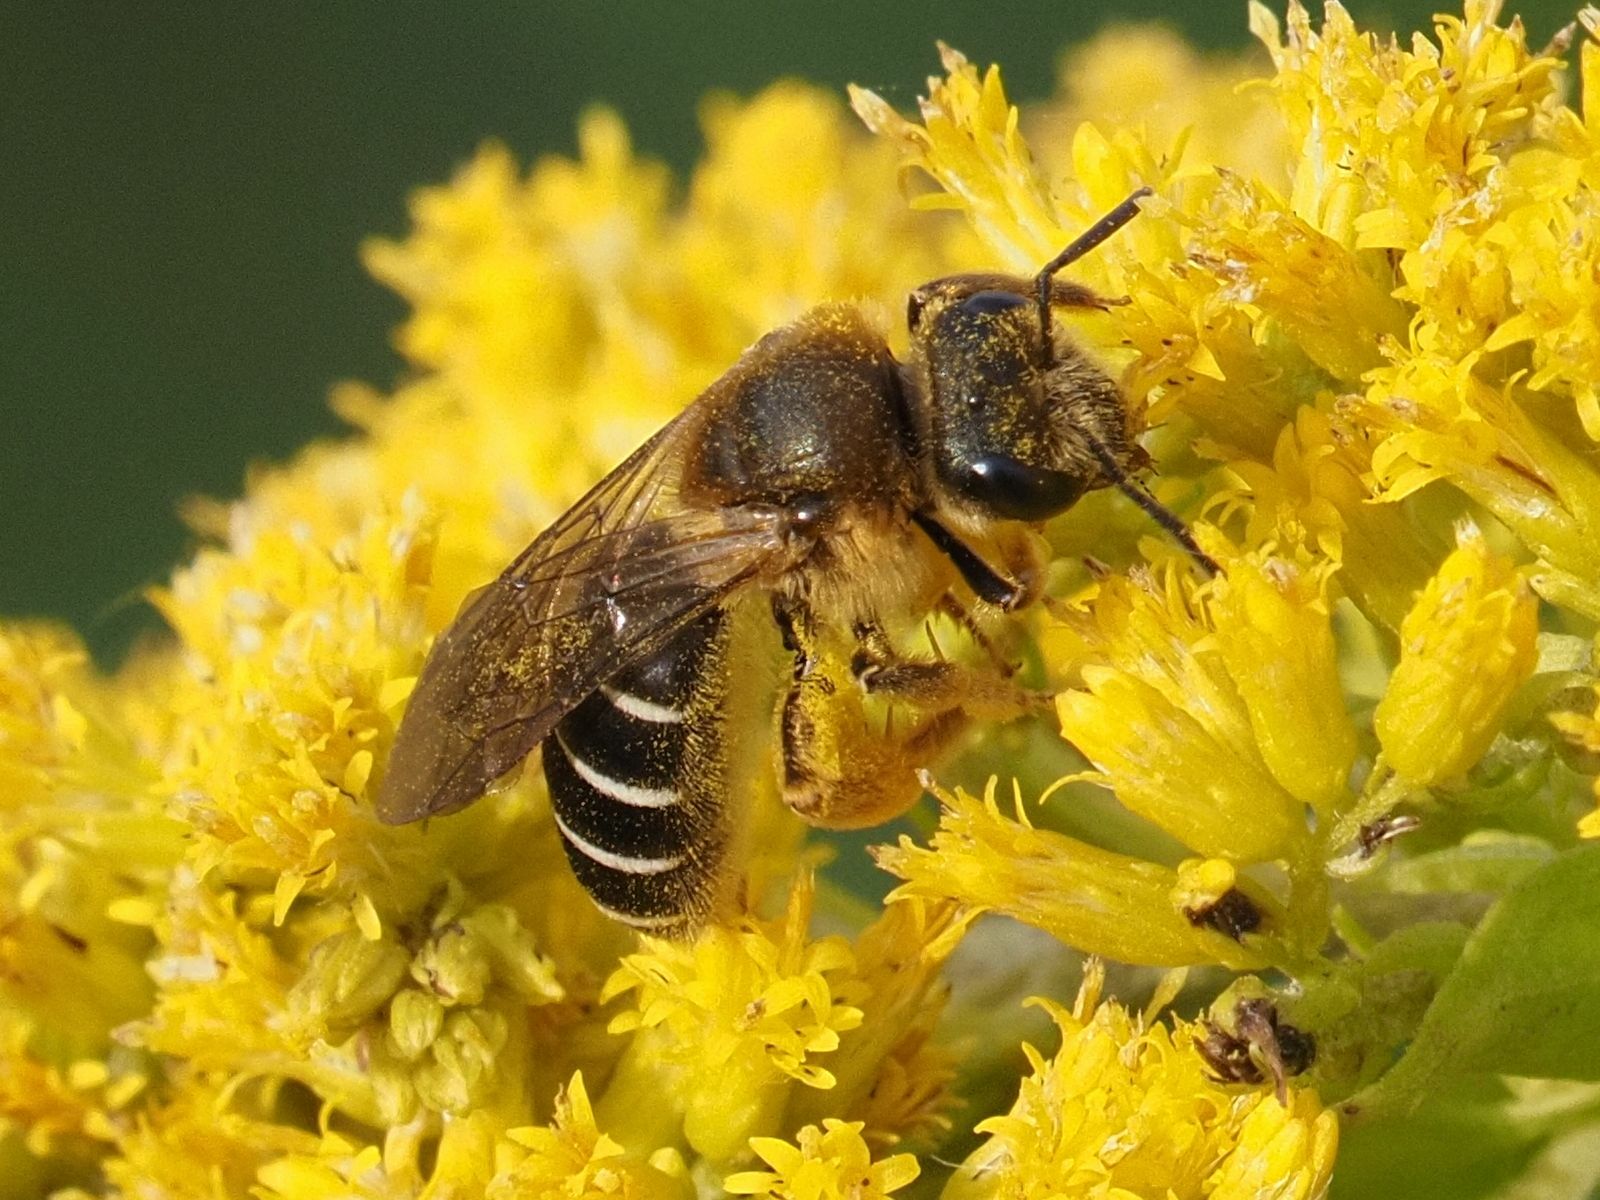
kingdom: Animalia
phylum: Arthropoda
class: Insecta
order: Hymenoptera
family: Halictidae
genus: Halictus
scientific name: Halictus rubicundus
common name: Orange-legged furrow bee
